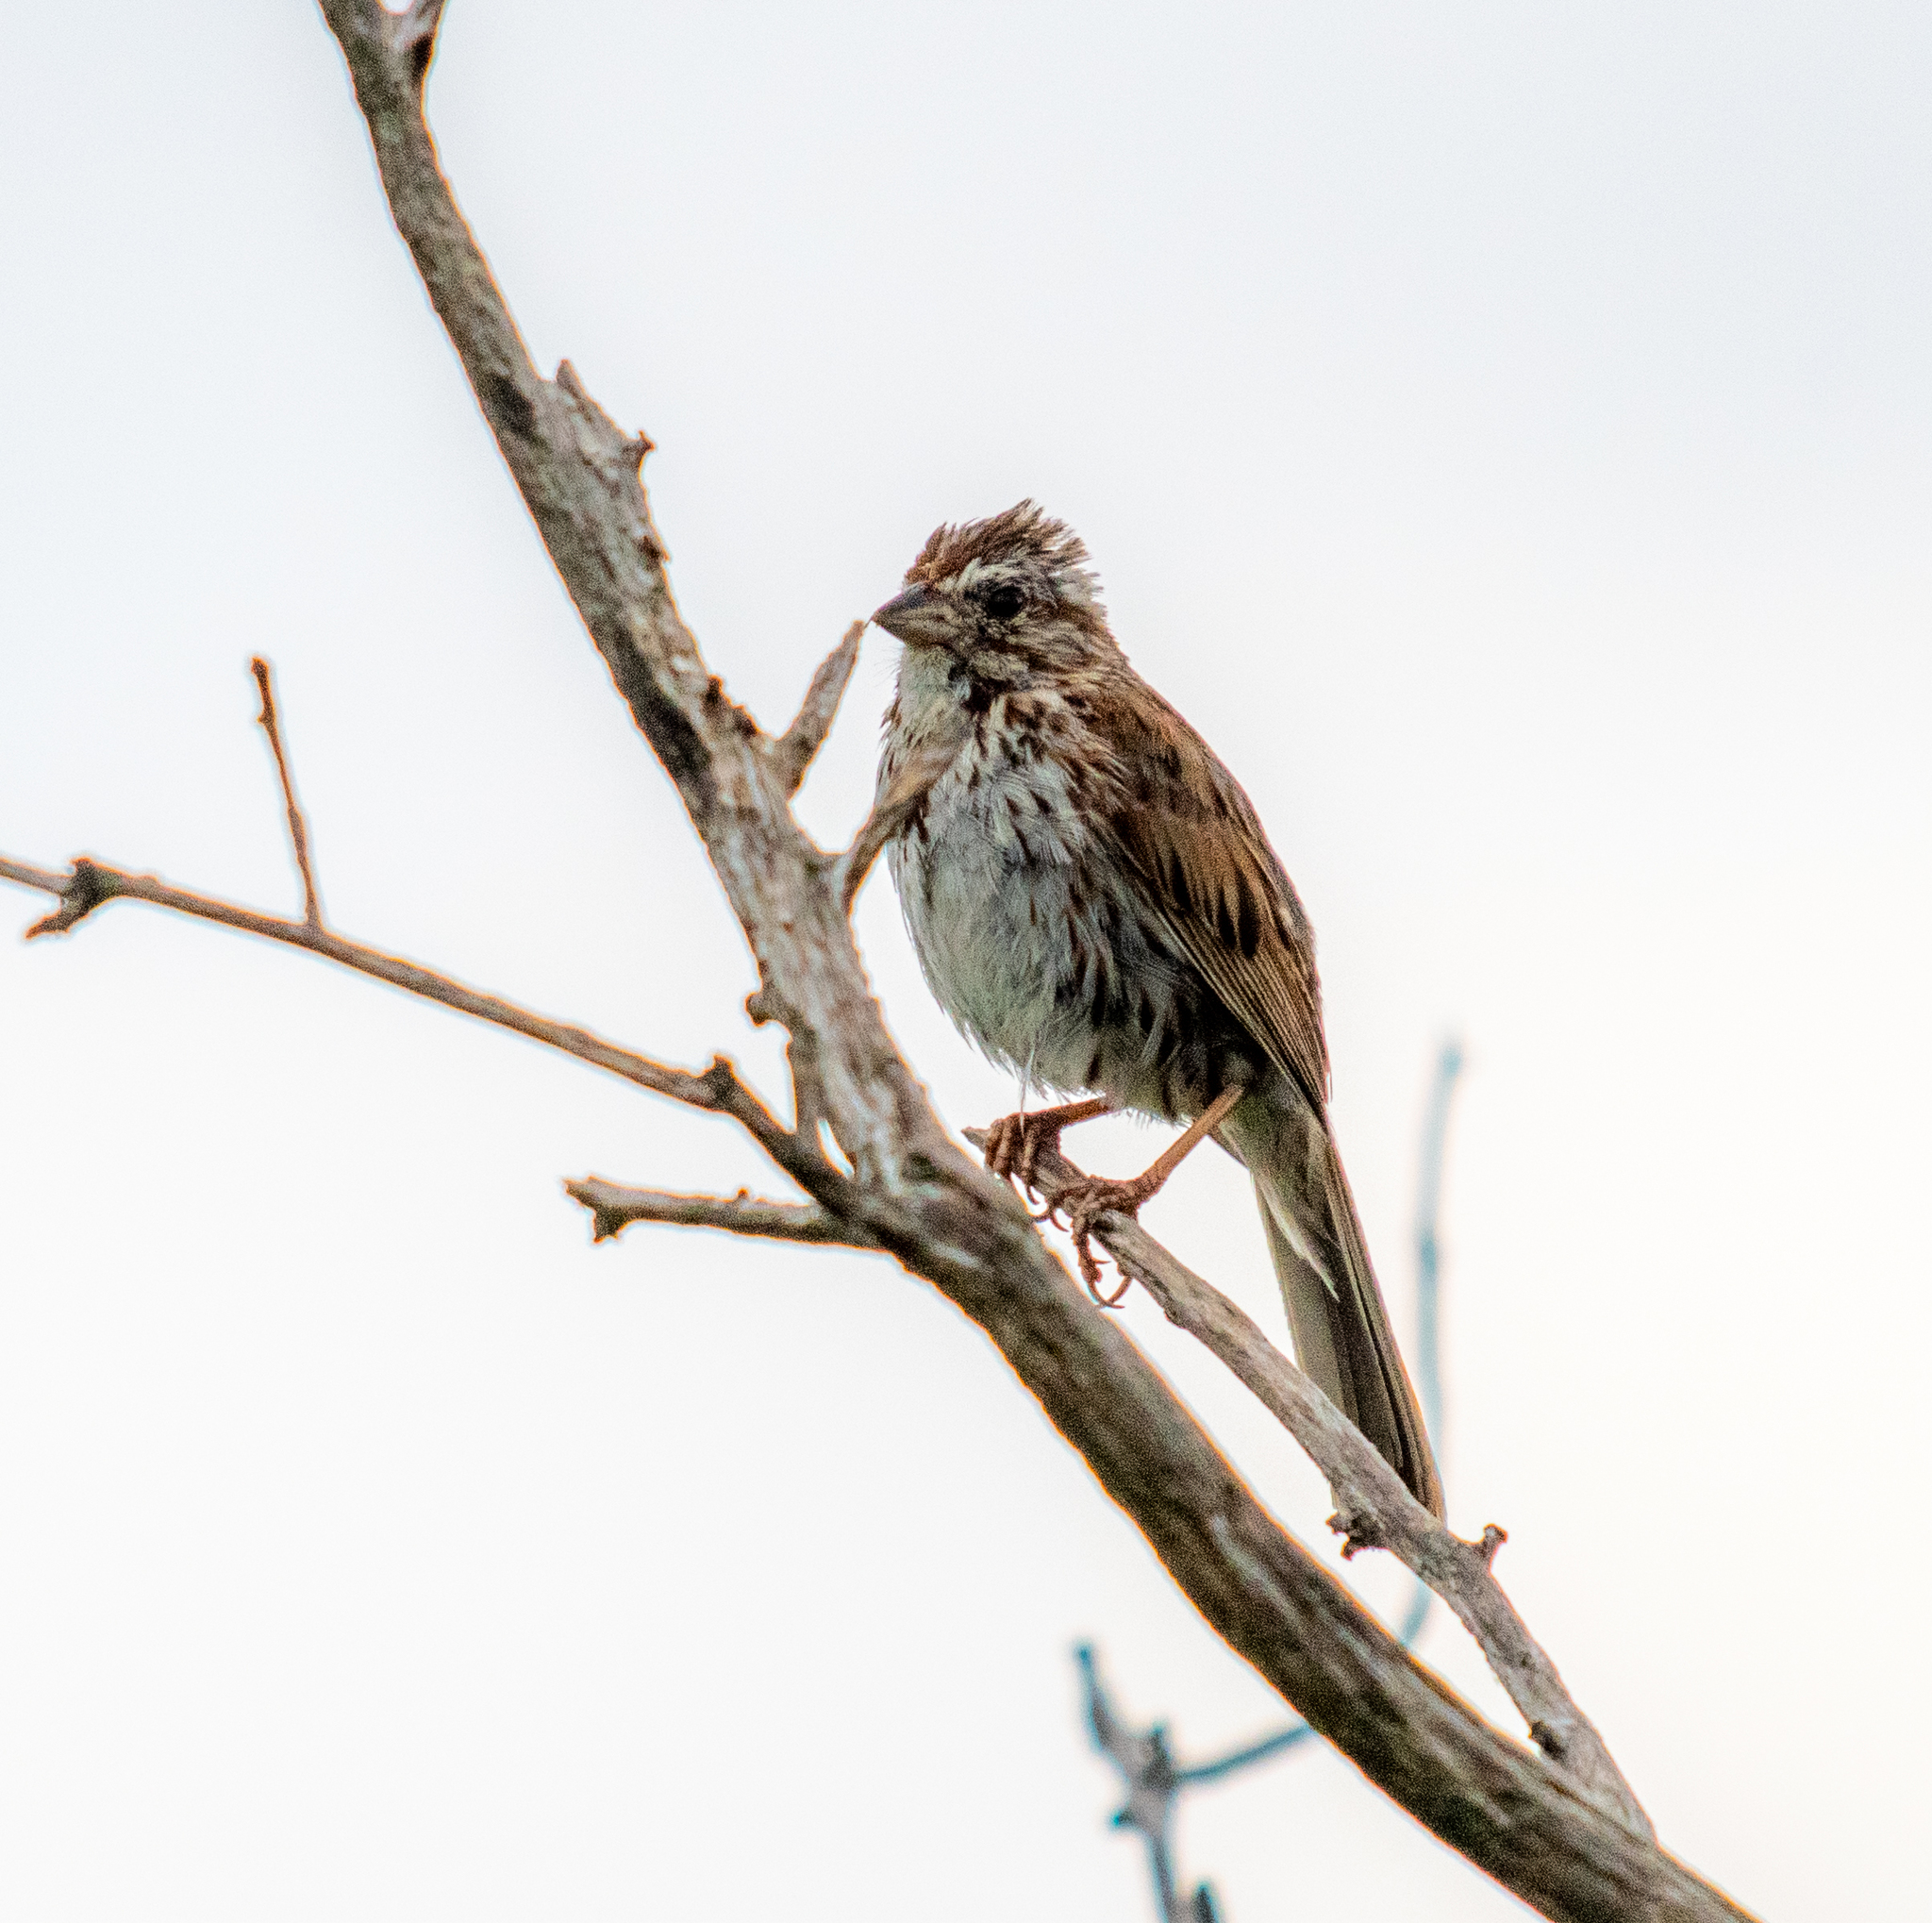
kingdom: Animalia
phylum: Chordata
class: Aves
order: Passeriformes
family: Passerellidae
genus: Melospiza
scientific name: Melospiza melodia
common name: Song sparrow
